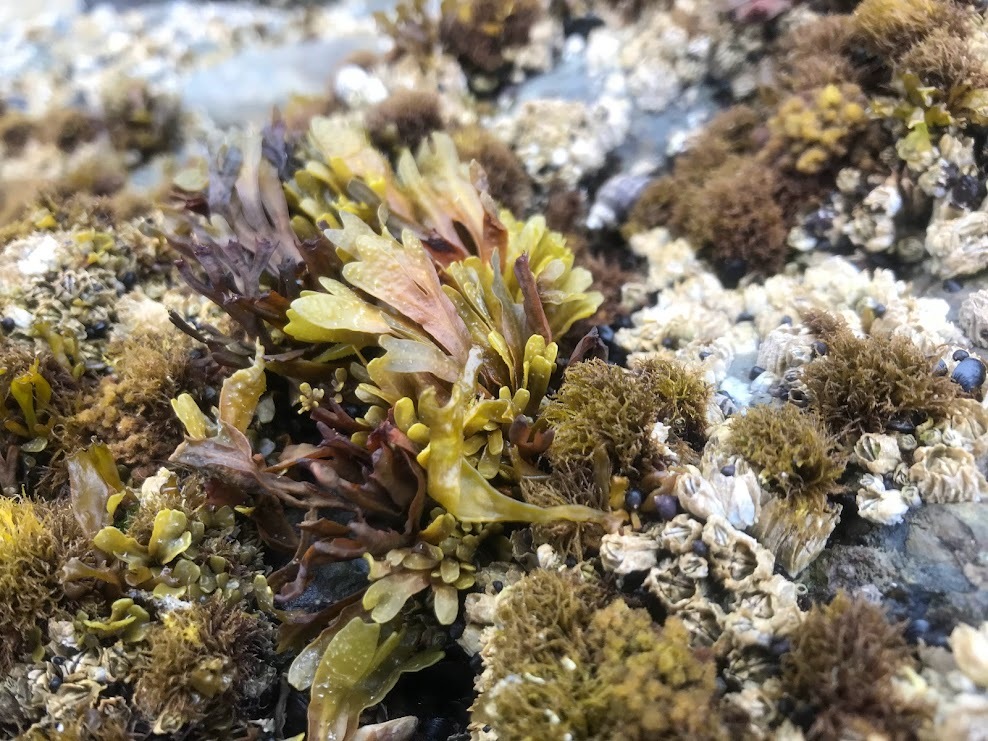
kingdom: Chromista
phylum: Ochrophyta
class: Phaeophyceae
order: Fucales
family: Fucaceae
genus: Fucus
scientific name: Fucus distichus
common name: Rockweed
